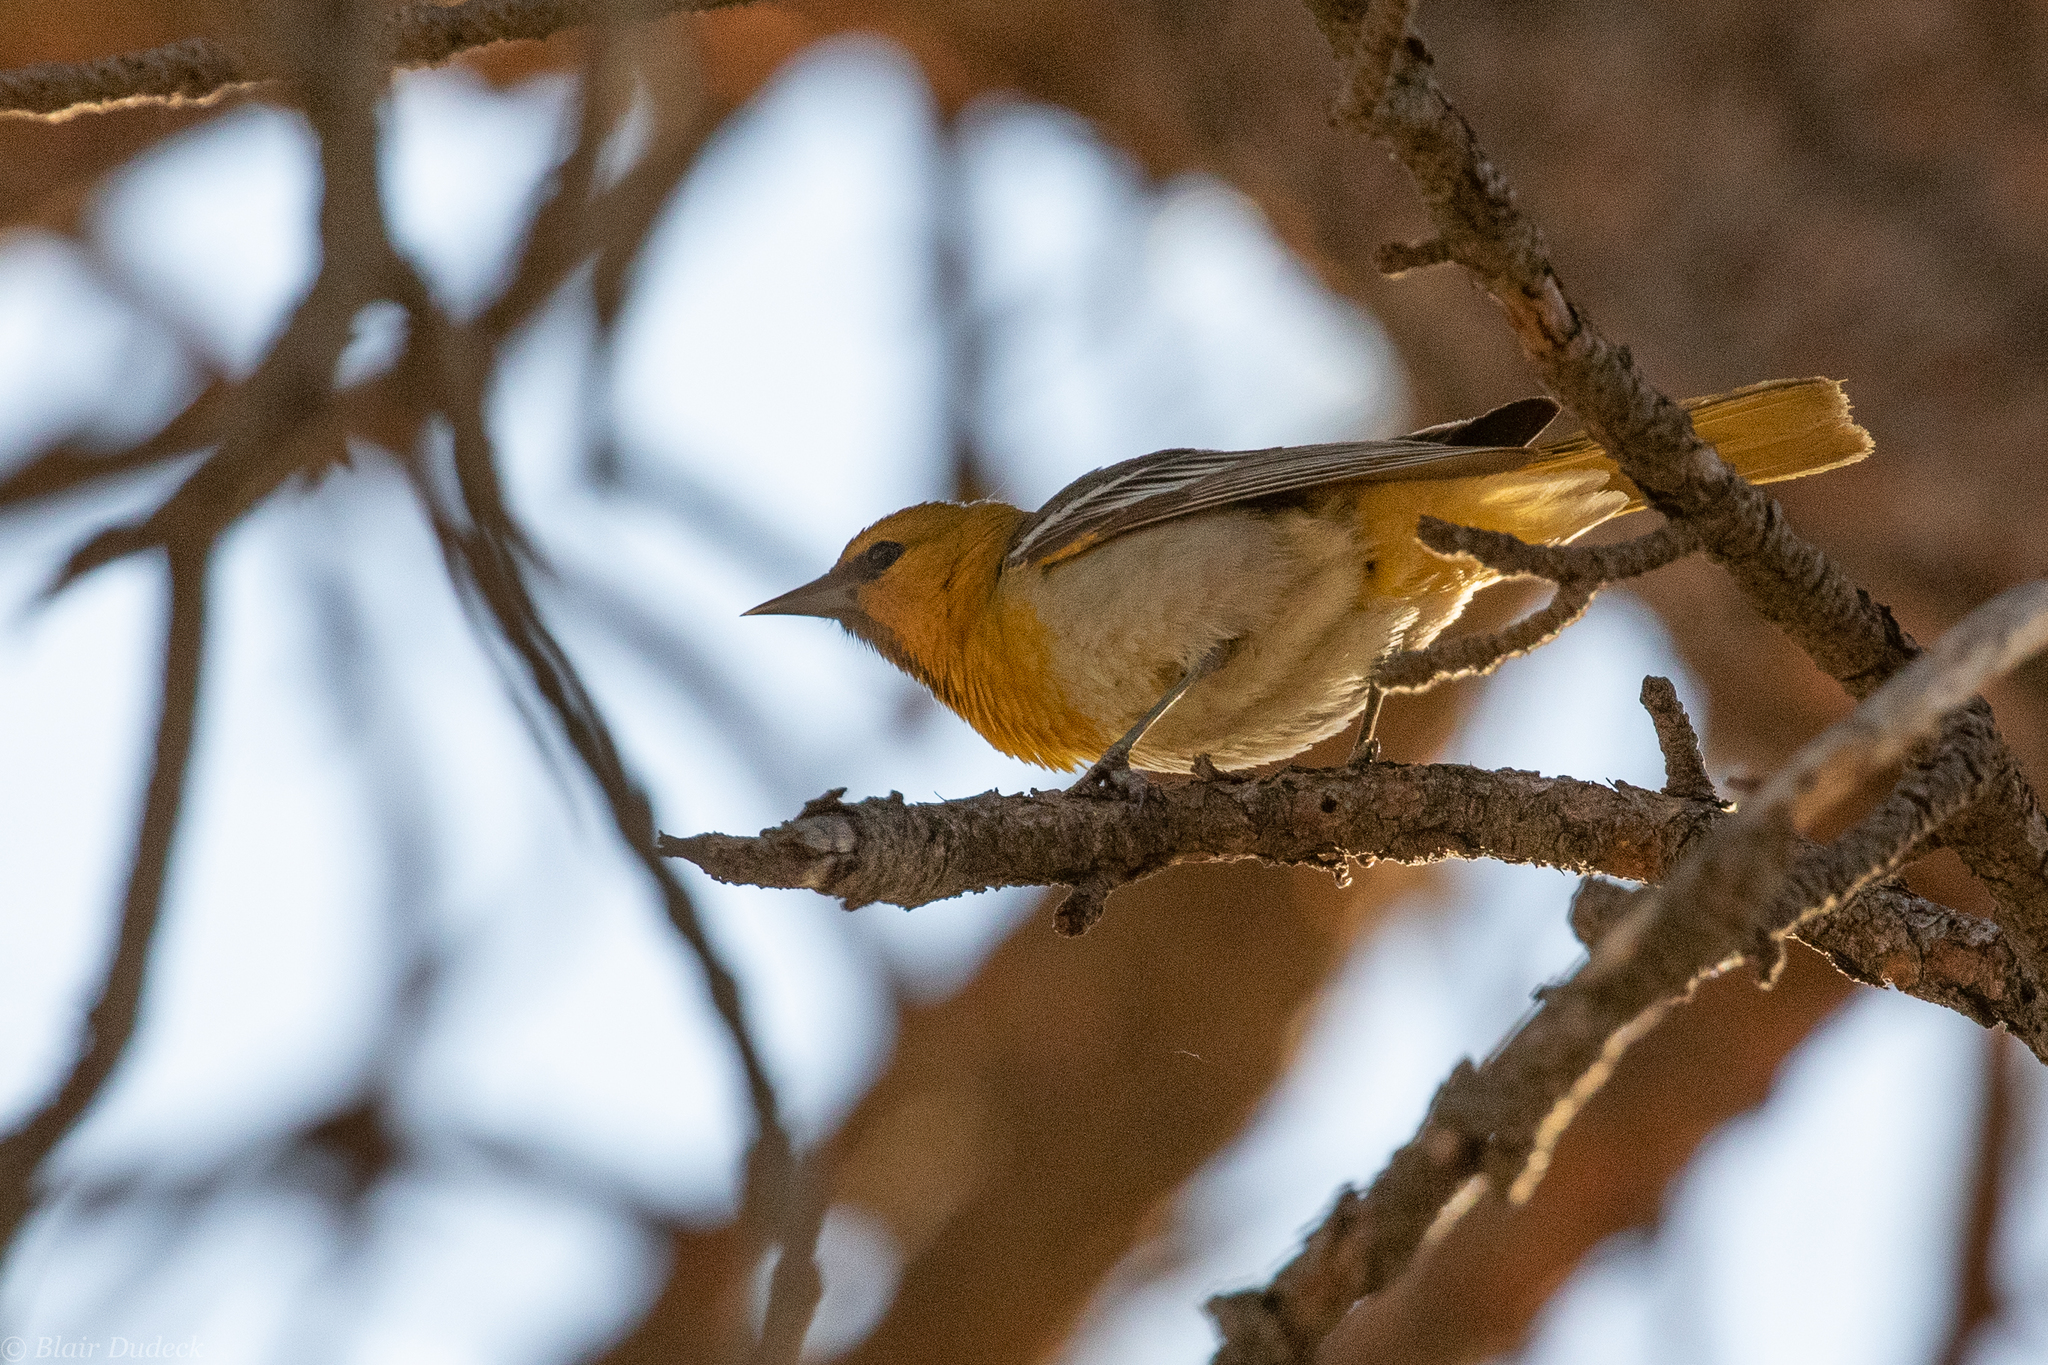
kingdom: Animalia
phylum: Chordata
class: Aves
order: Passeriformes
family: Icteridae
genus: Icterus
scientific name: Icterus bullockii
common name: Bullock's oriole
